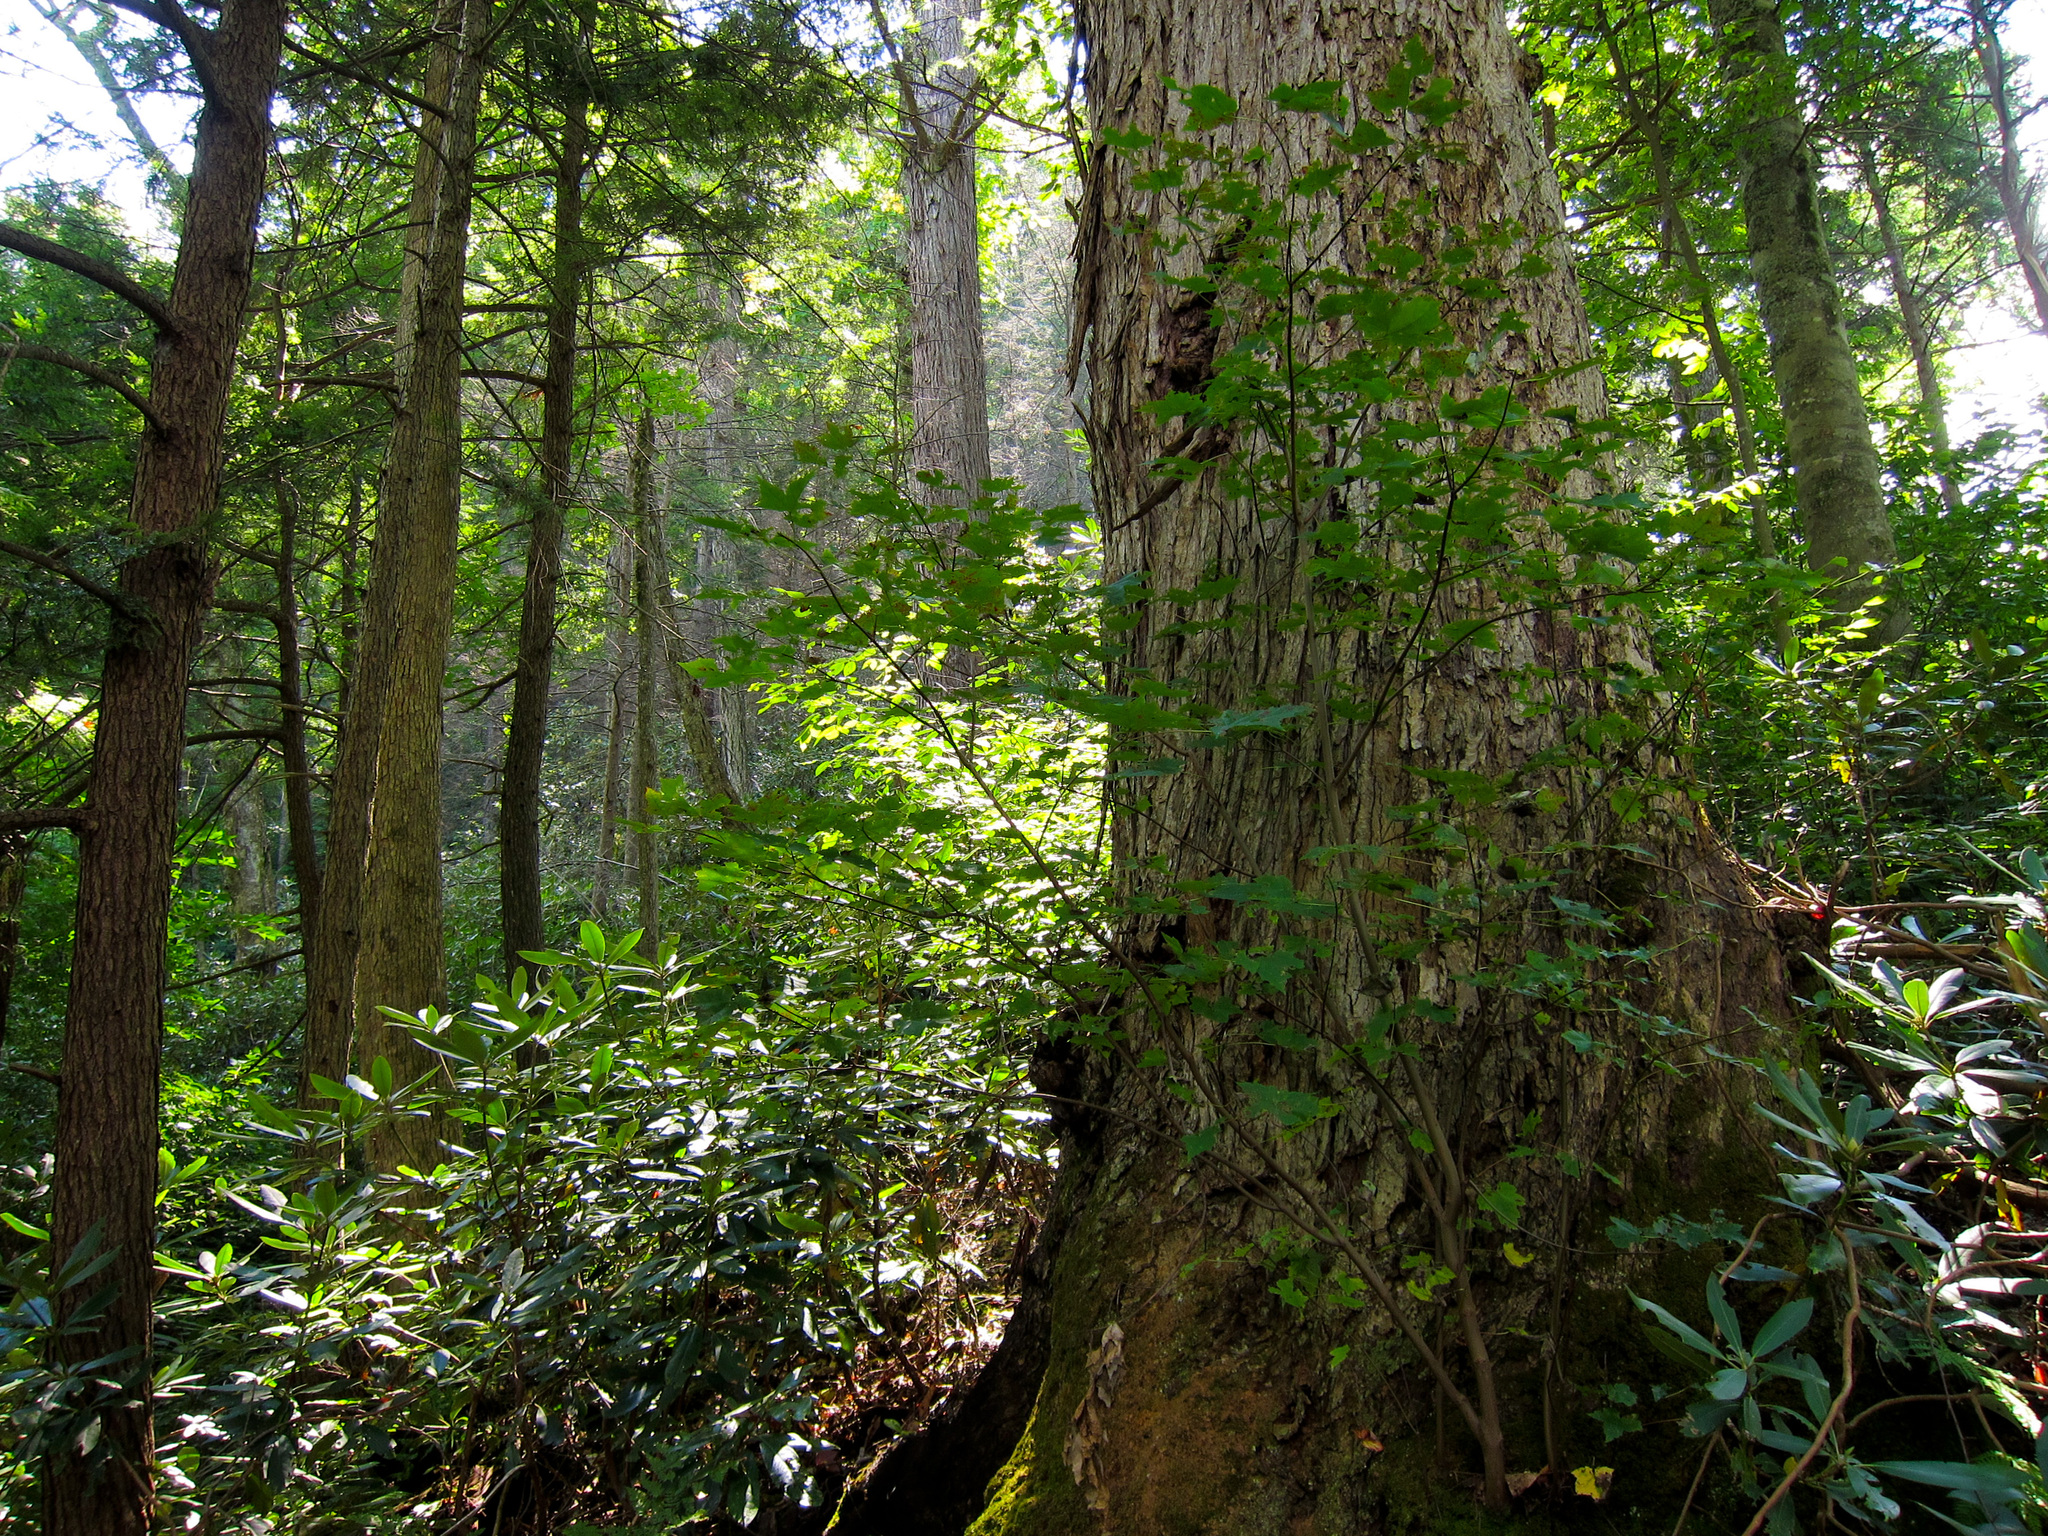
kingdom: Plantae
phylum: Tracheophyta
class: Magnoliopsida
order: Magnoliales
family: Magnoliaceae
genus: Liriodendron
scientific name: Liriodendron tulipifera
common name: Tulip tree
